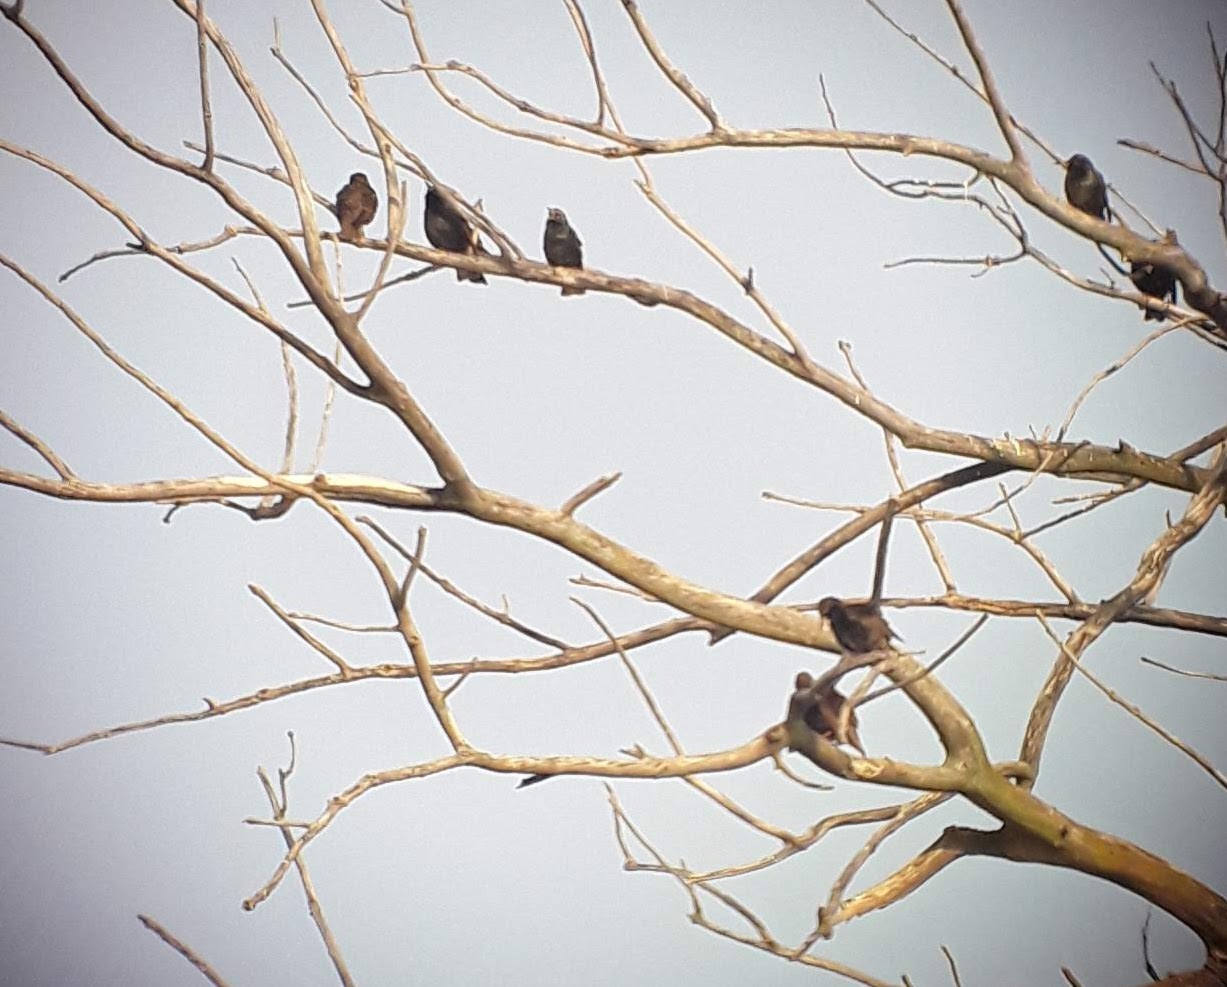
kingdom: Animalia
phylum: Chordata
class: Aves
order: Passeriformes
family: Sturnidae
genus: Sturnus
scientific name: Sturnus vulgaris
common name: Common starling
